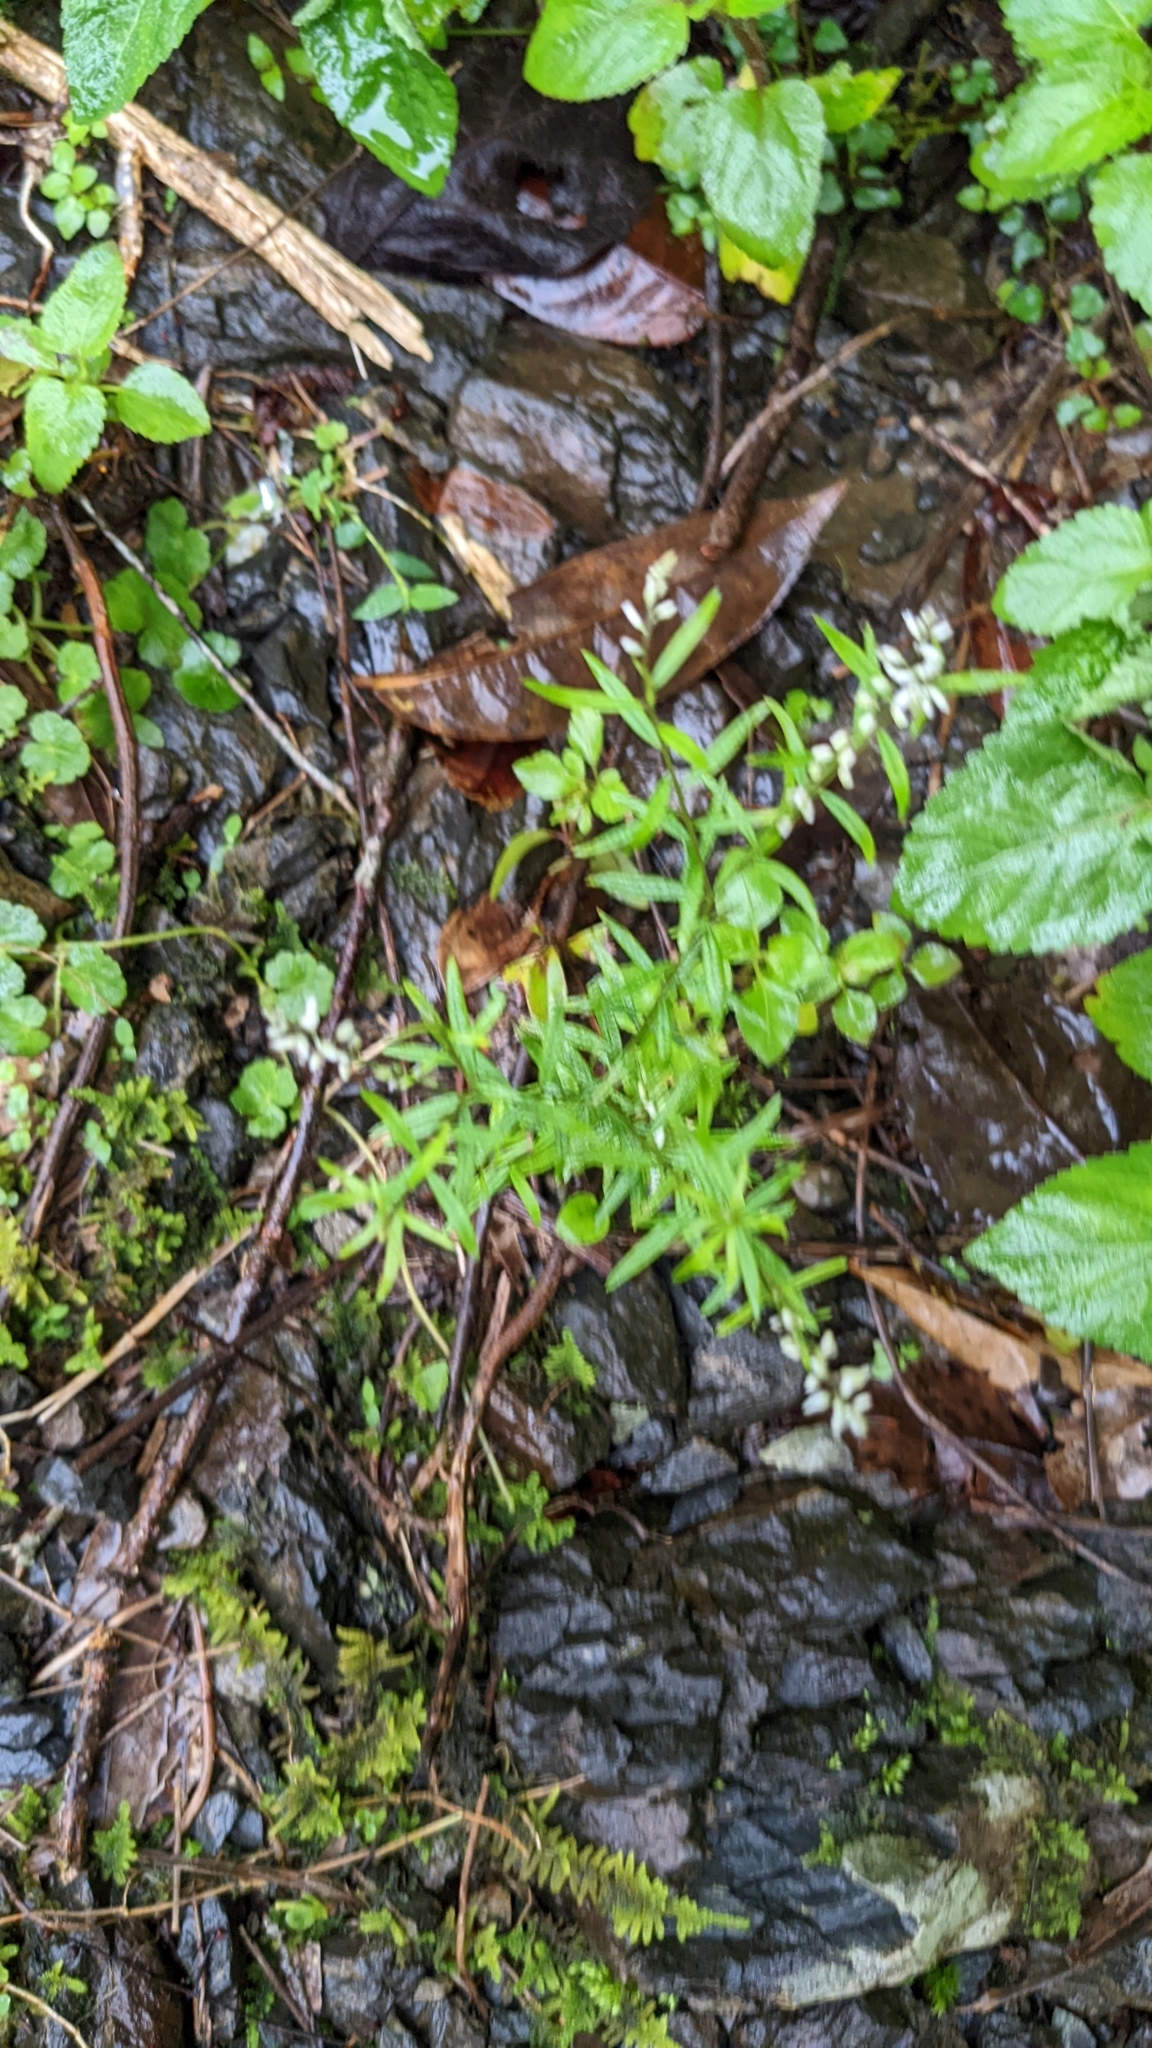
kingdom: Plantae
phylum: Tracheophyta
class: Magnoliopsida
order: Fabales
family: Polygalaceae
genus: Polygala
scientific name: Polygala paniculata
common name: Orosne
